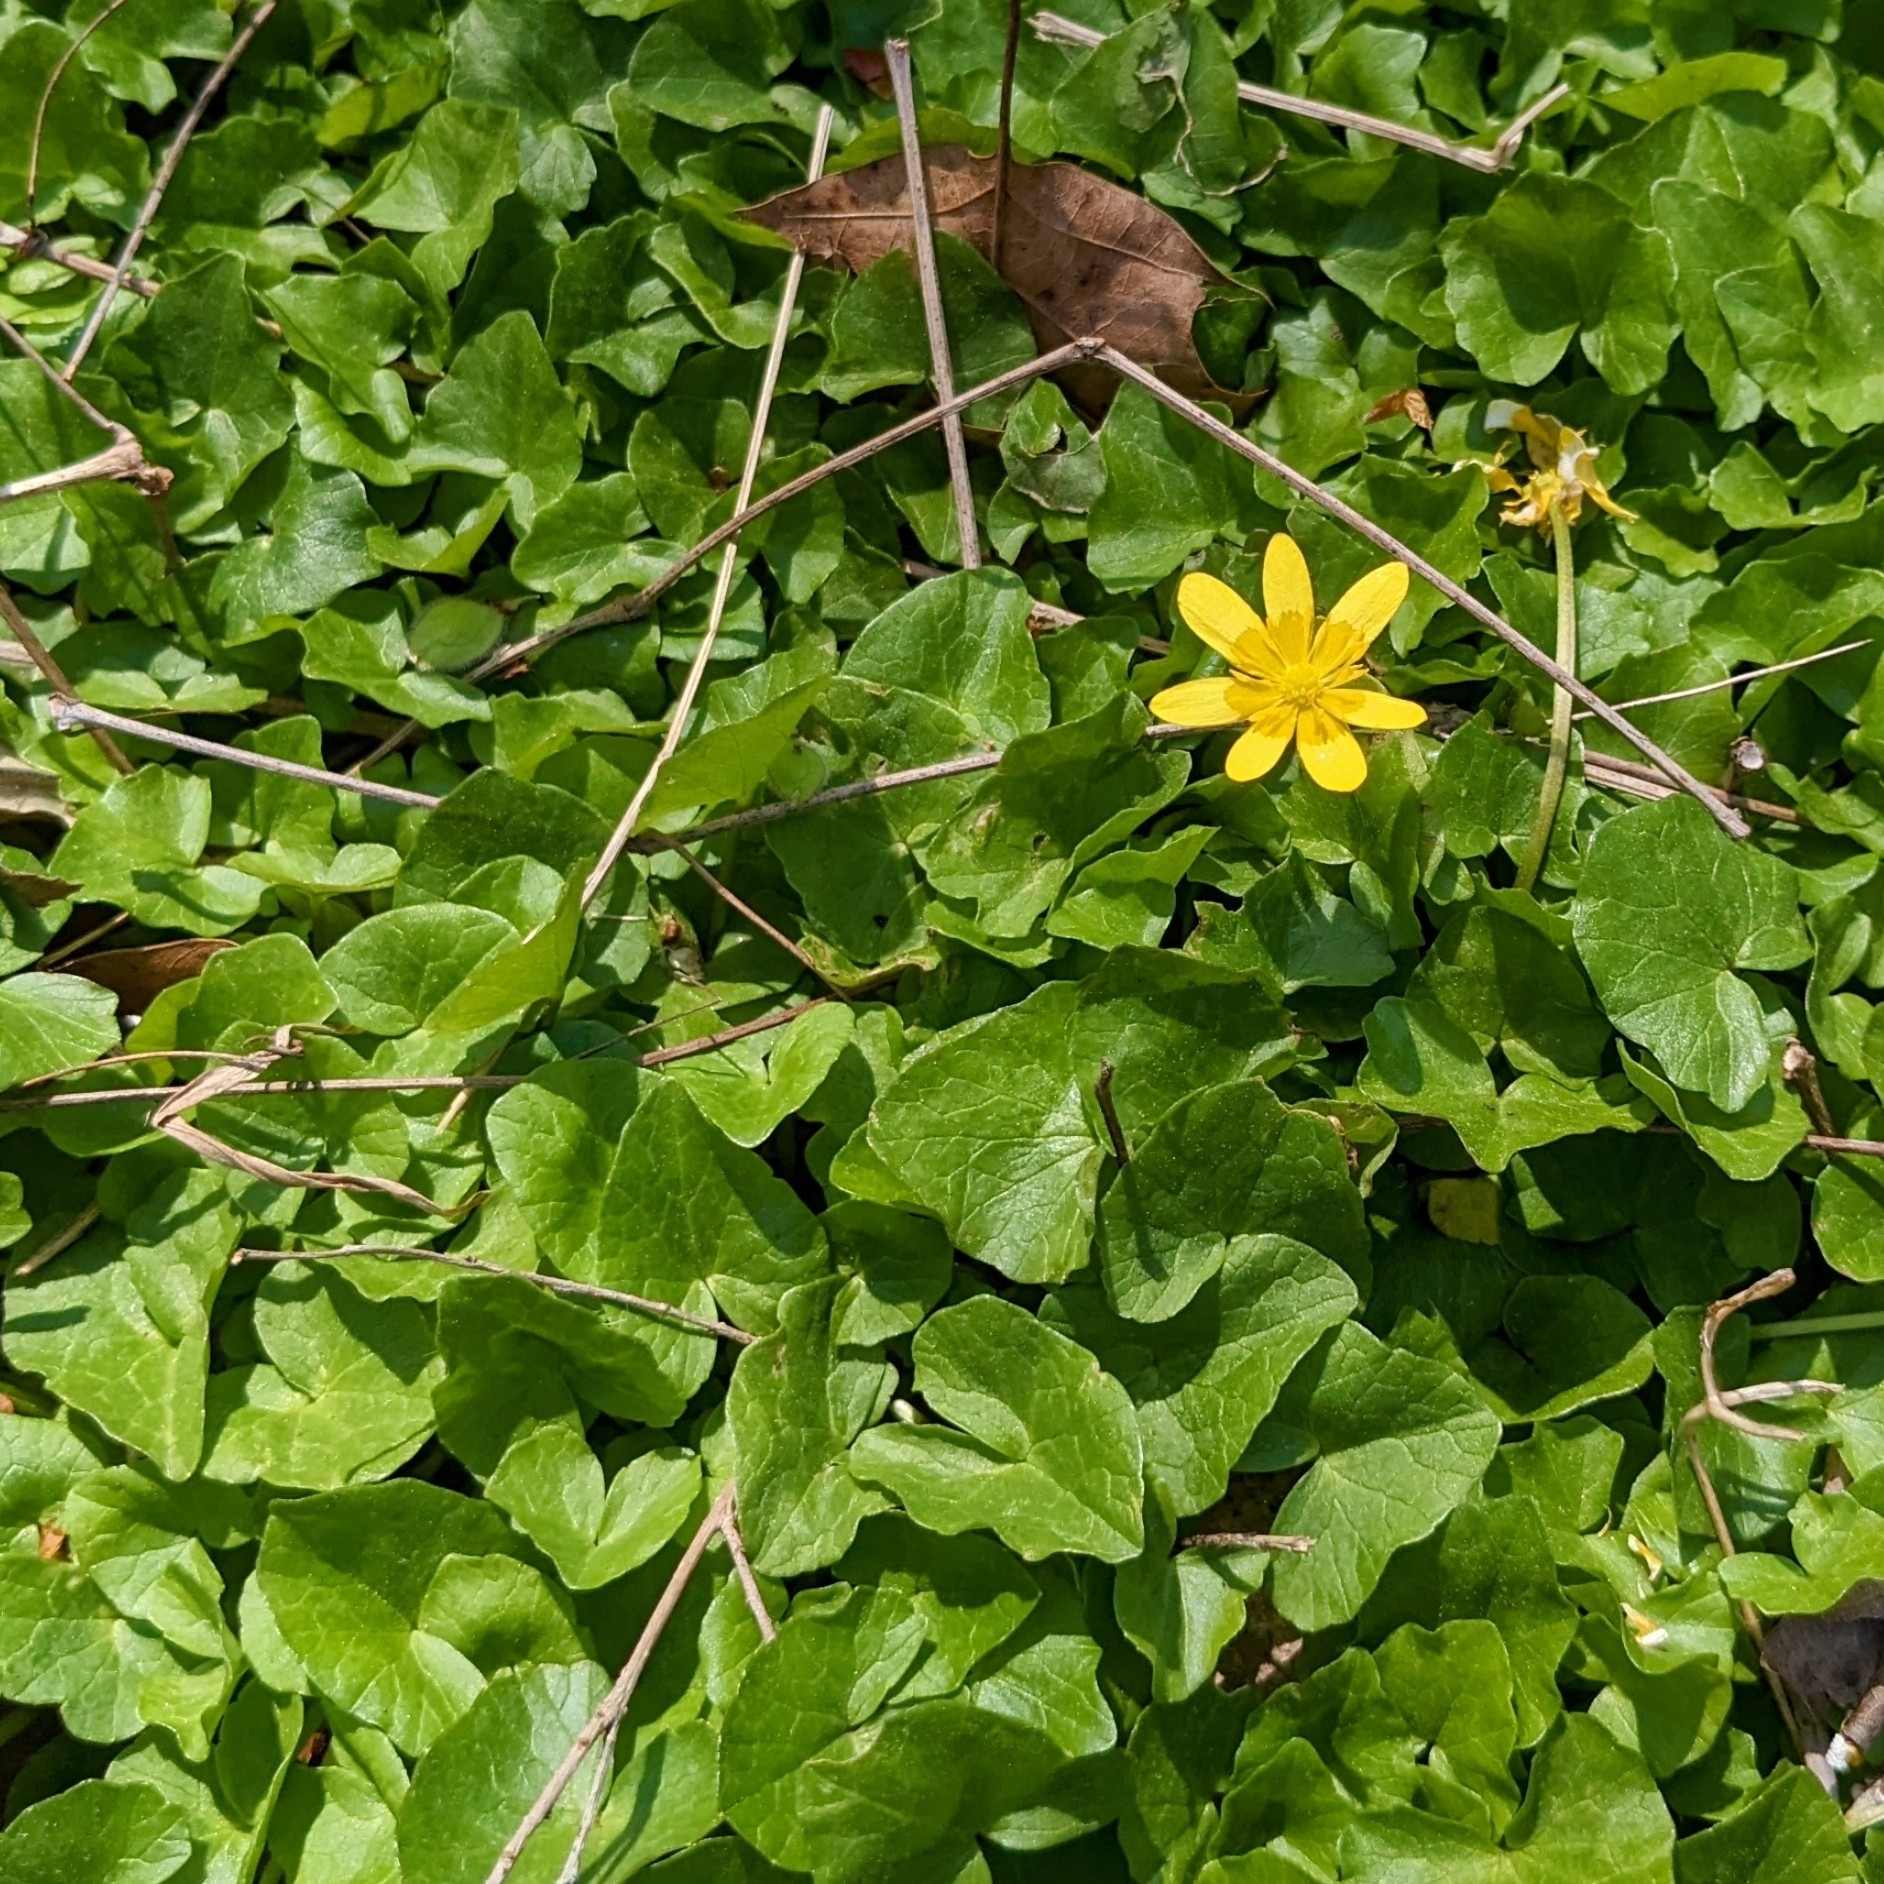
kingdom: Plantae
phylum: Tracheophyta
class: Magnoliopsida
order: Ranunculales
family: Ranunculaceae
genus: Ficaria
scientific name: Ficaria verna
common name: Lesser celandine
